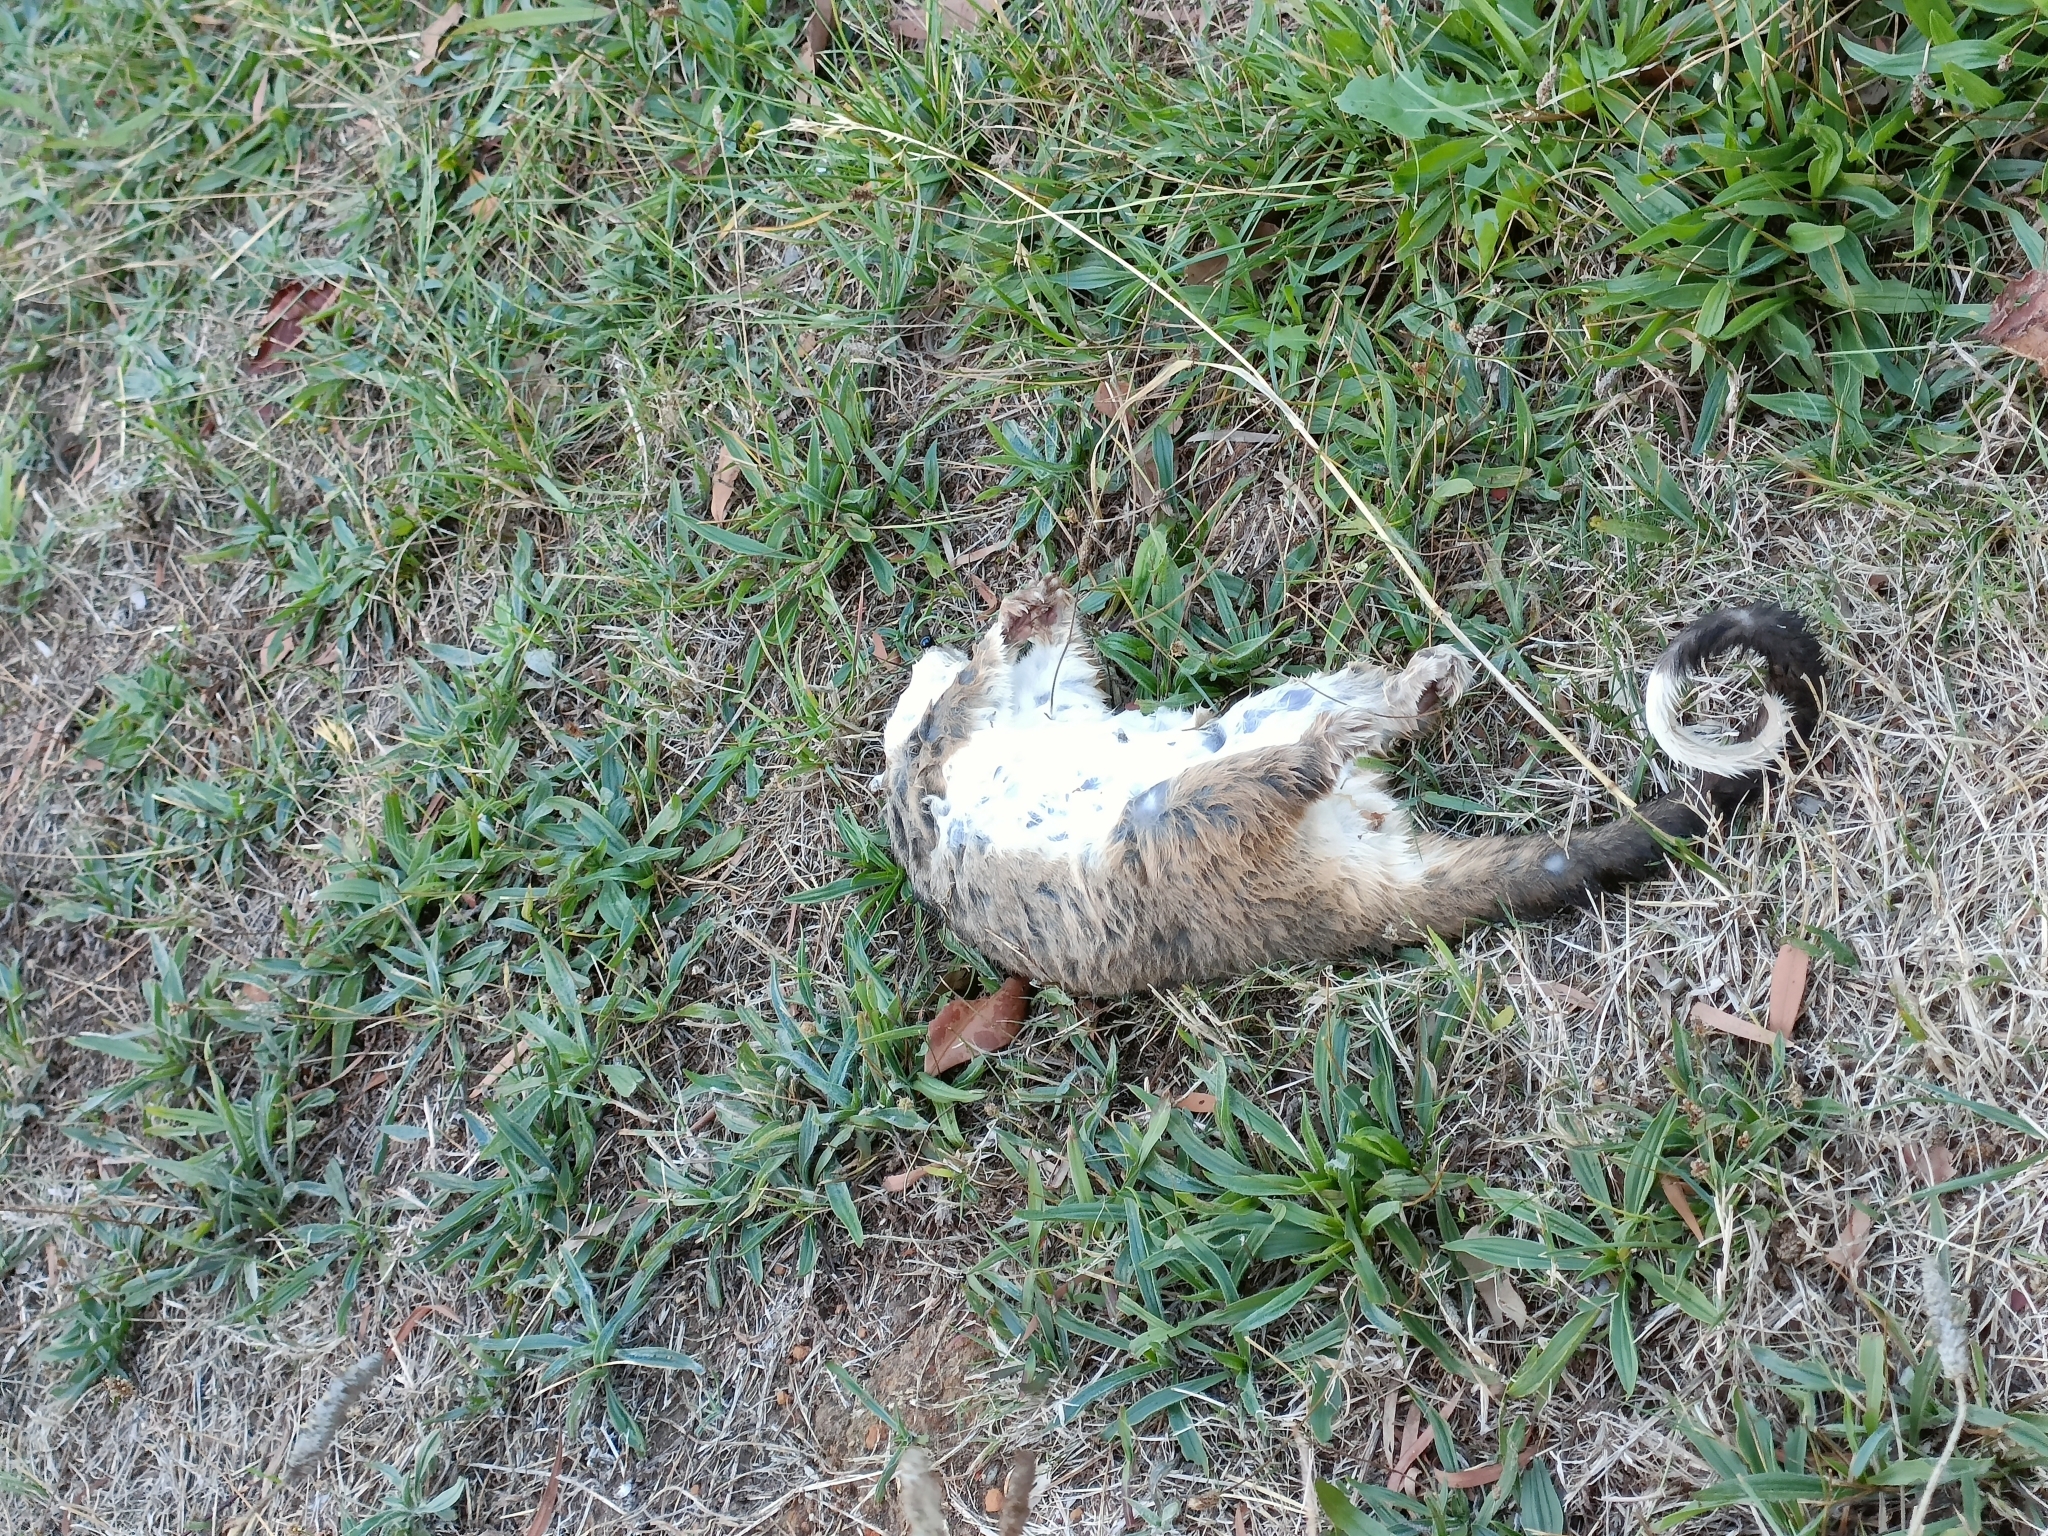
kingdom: Animalia
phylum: Chordata
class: Mammalia
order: Diprotodontia
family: Pseudocheiridae
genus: Pseudocheirus
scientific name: Pseudocheirus peregrinus
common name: Common ringtail possum
